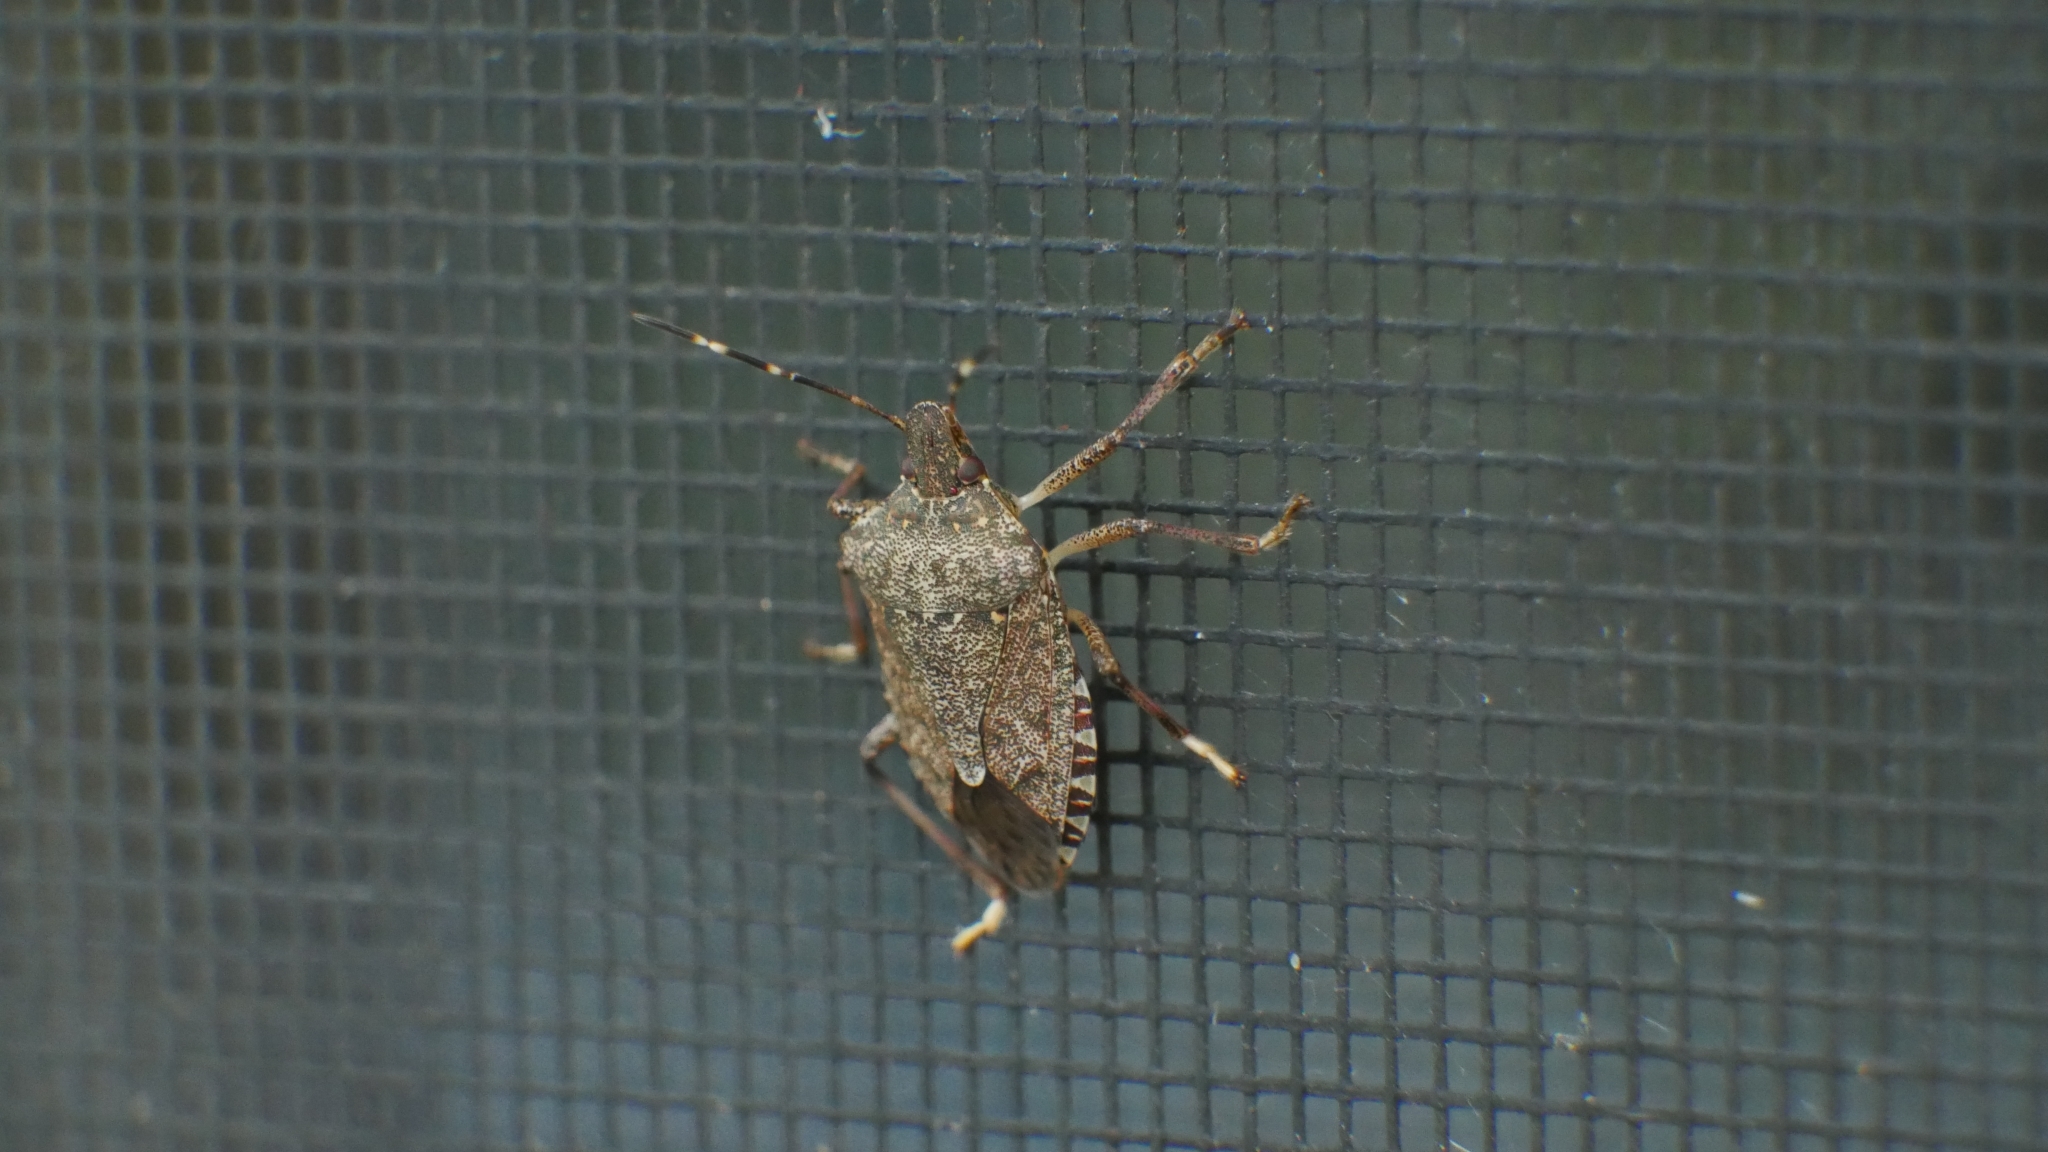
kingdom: Animalia
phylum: Arthropoda
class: Insecta
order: Hemiptera
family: Pentatomidae
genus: Halyomorpha
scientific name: Halyomorpha halys
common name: Brown marmorated stink bug
